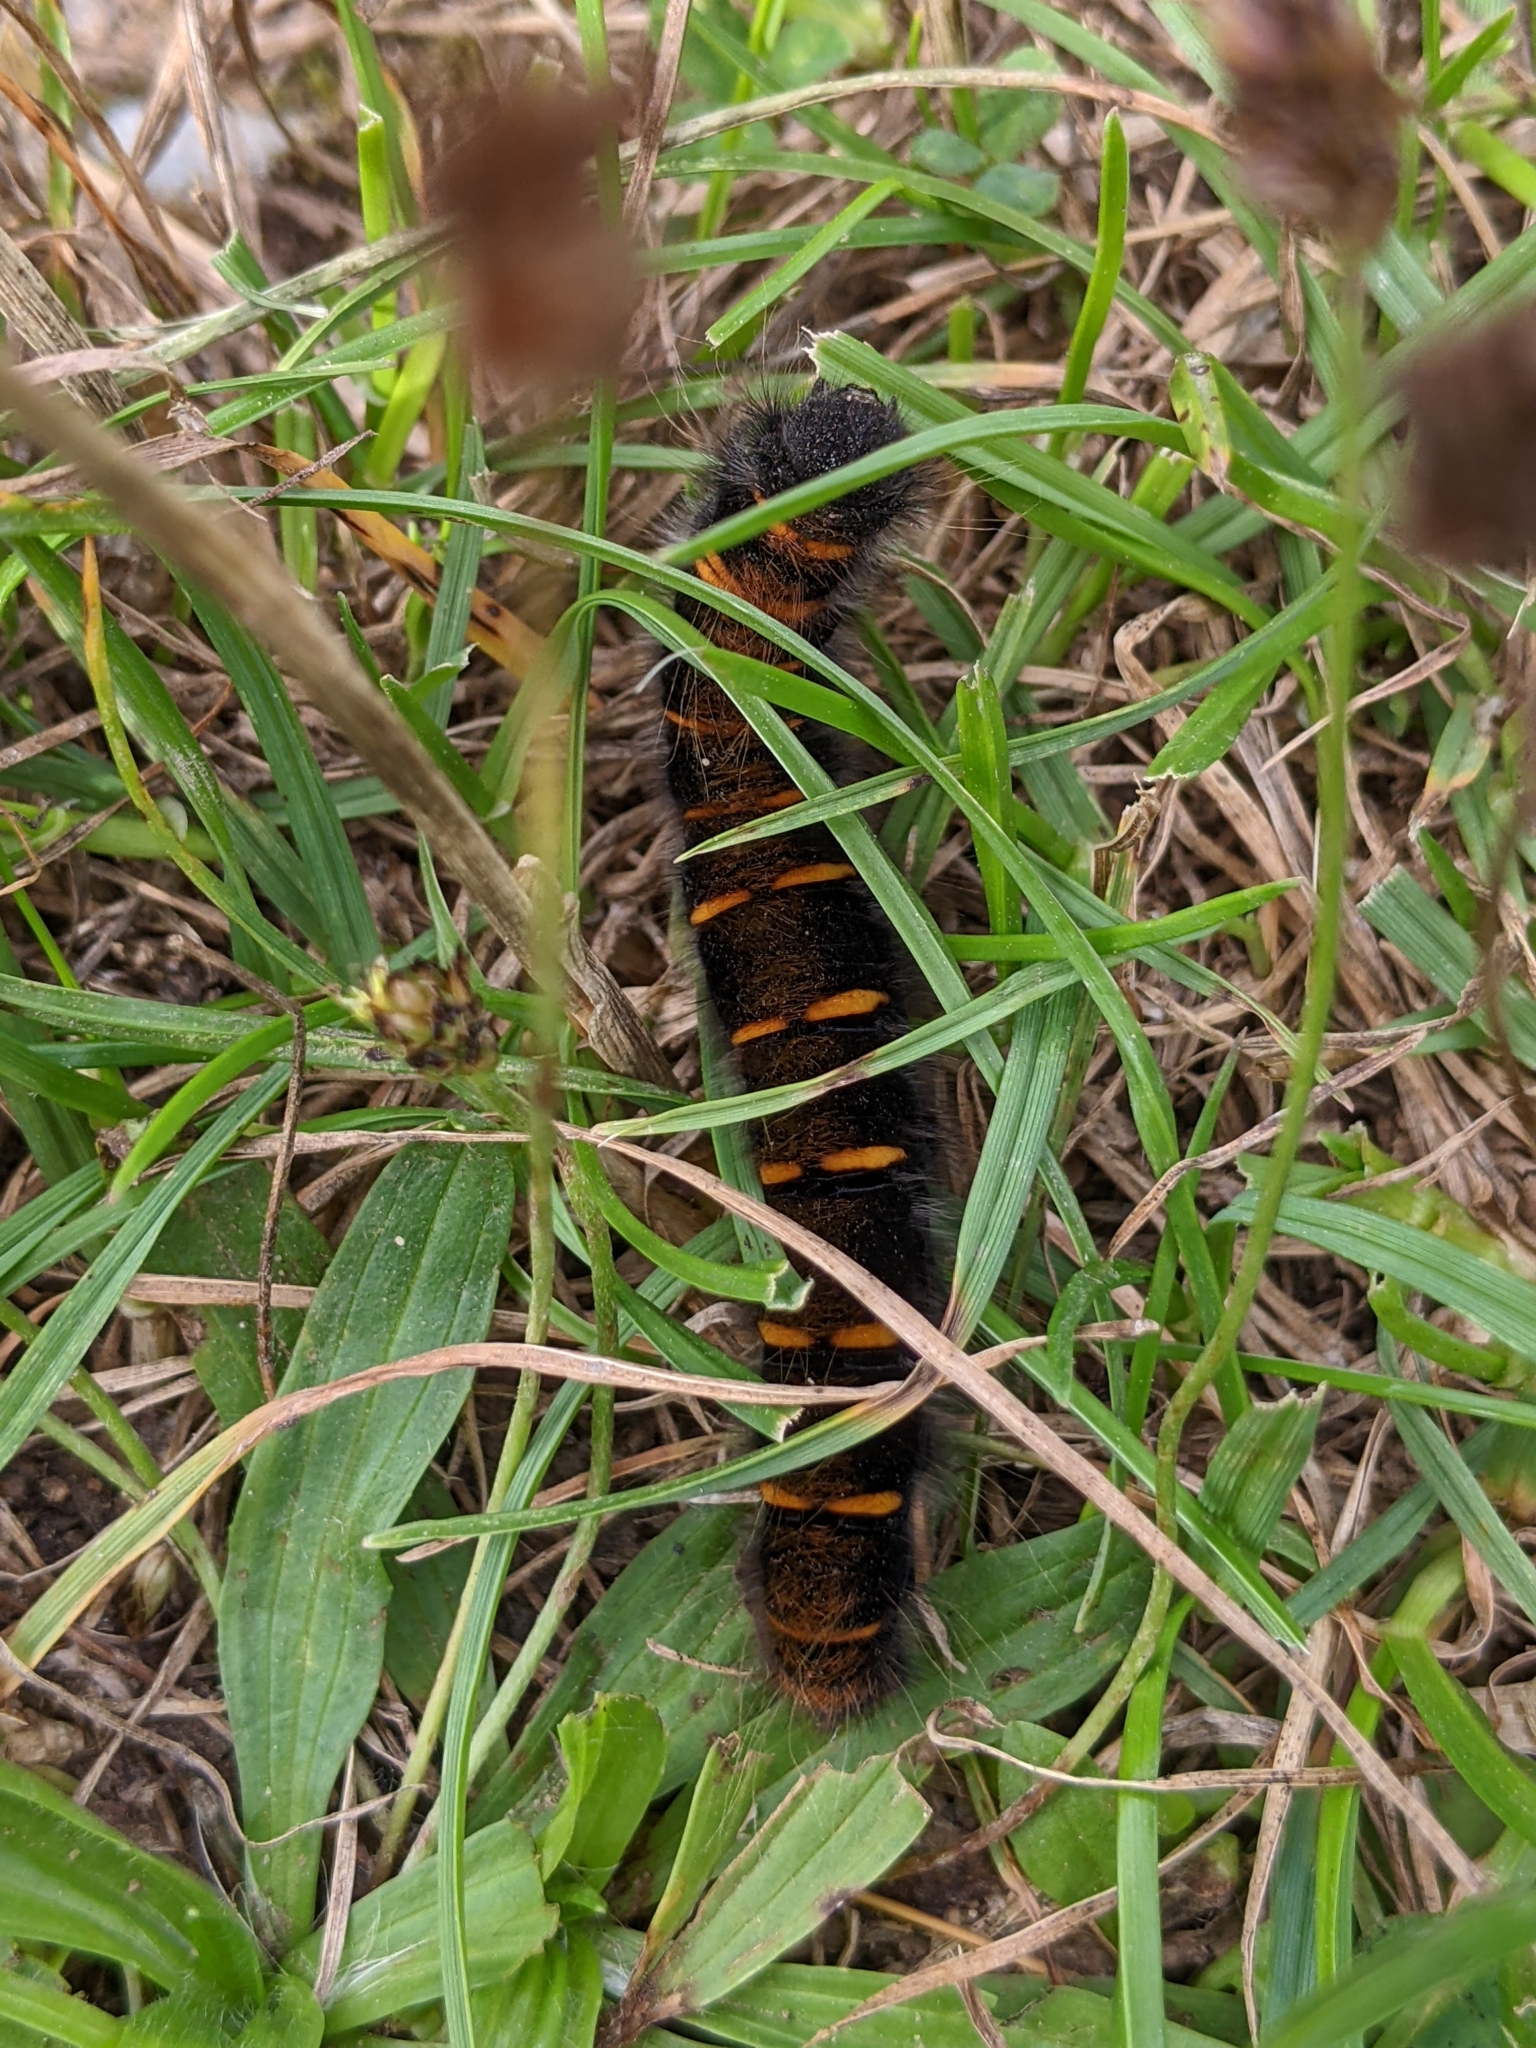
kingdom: Animalia
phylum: Arthropoda
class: Insecta
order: Lepidoptera
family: Lasiocampidae
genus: Macrothylacia
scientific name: Macrothylacia rubi
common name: Fox moth
